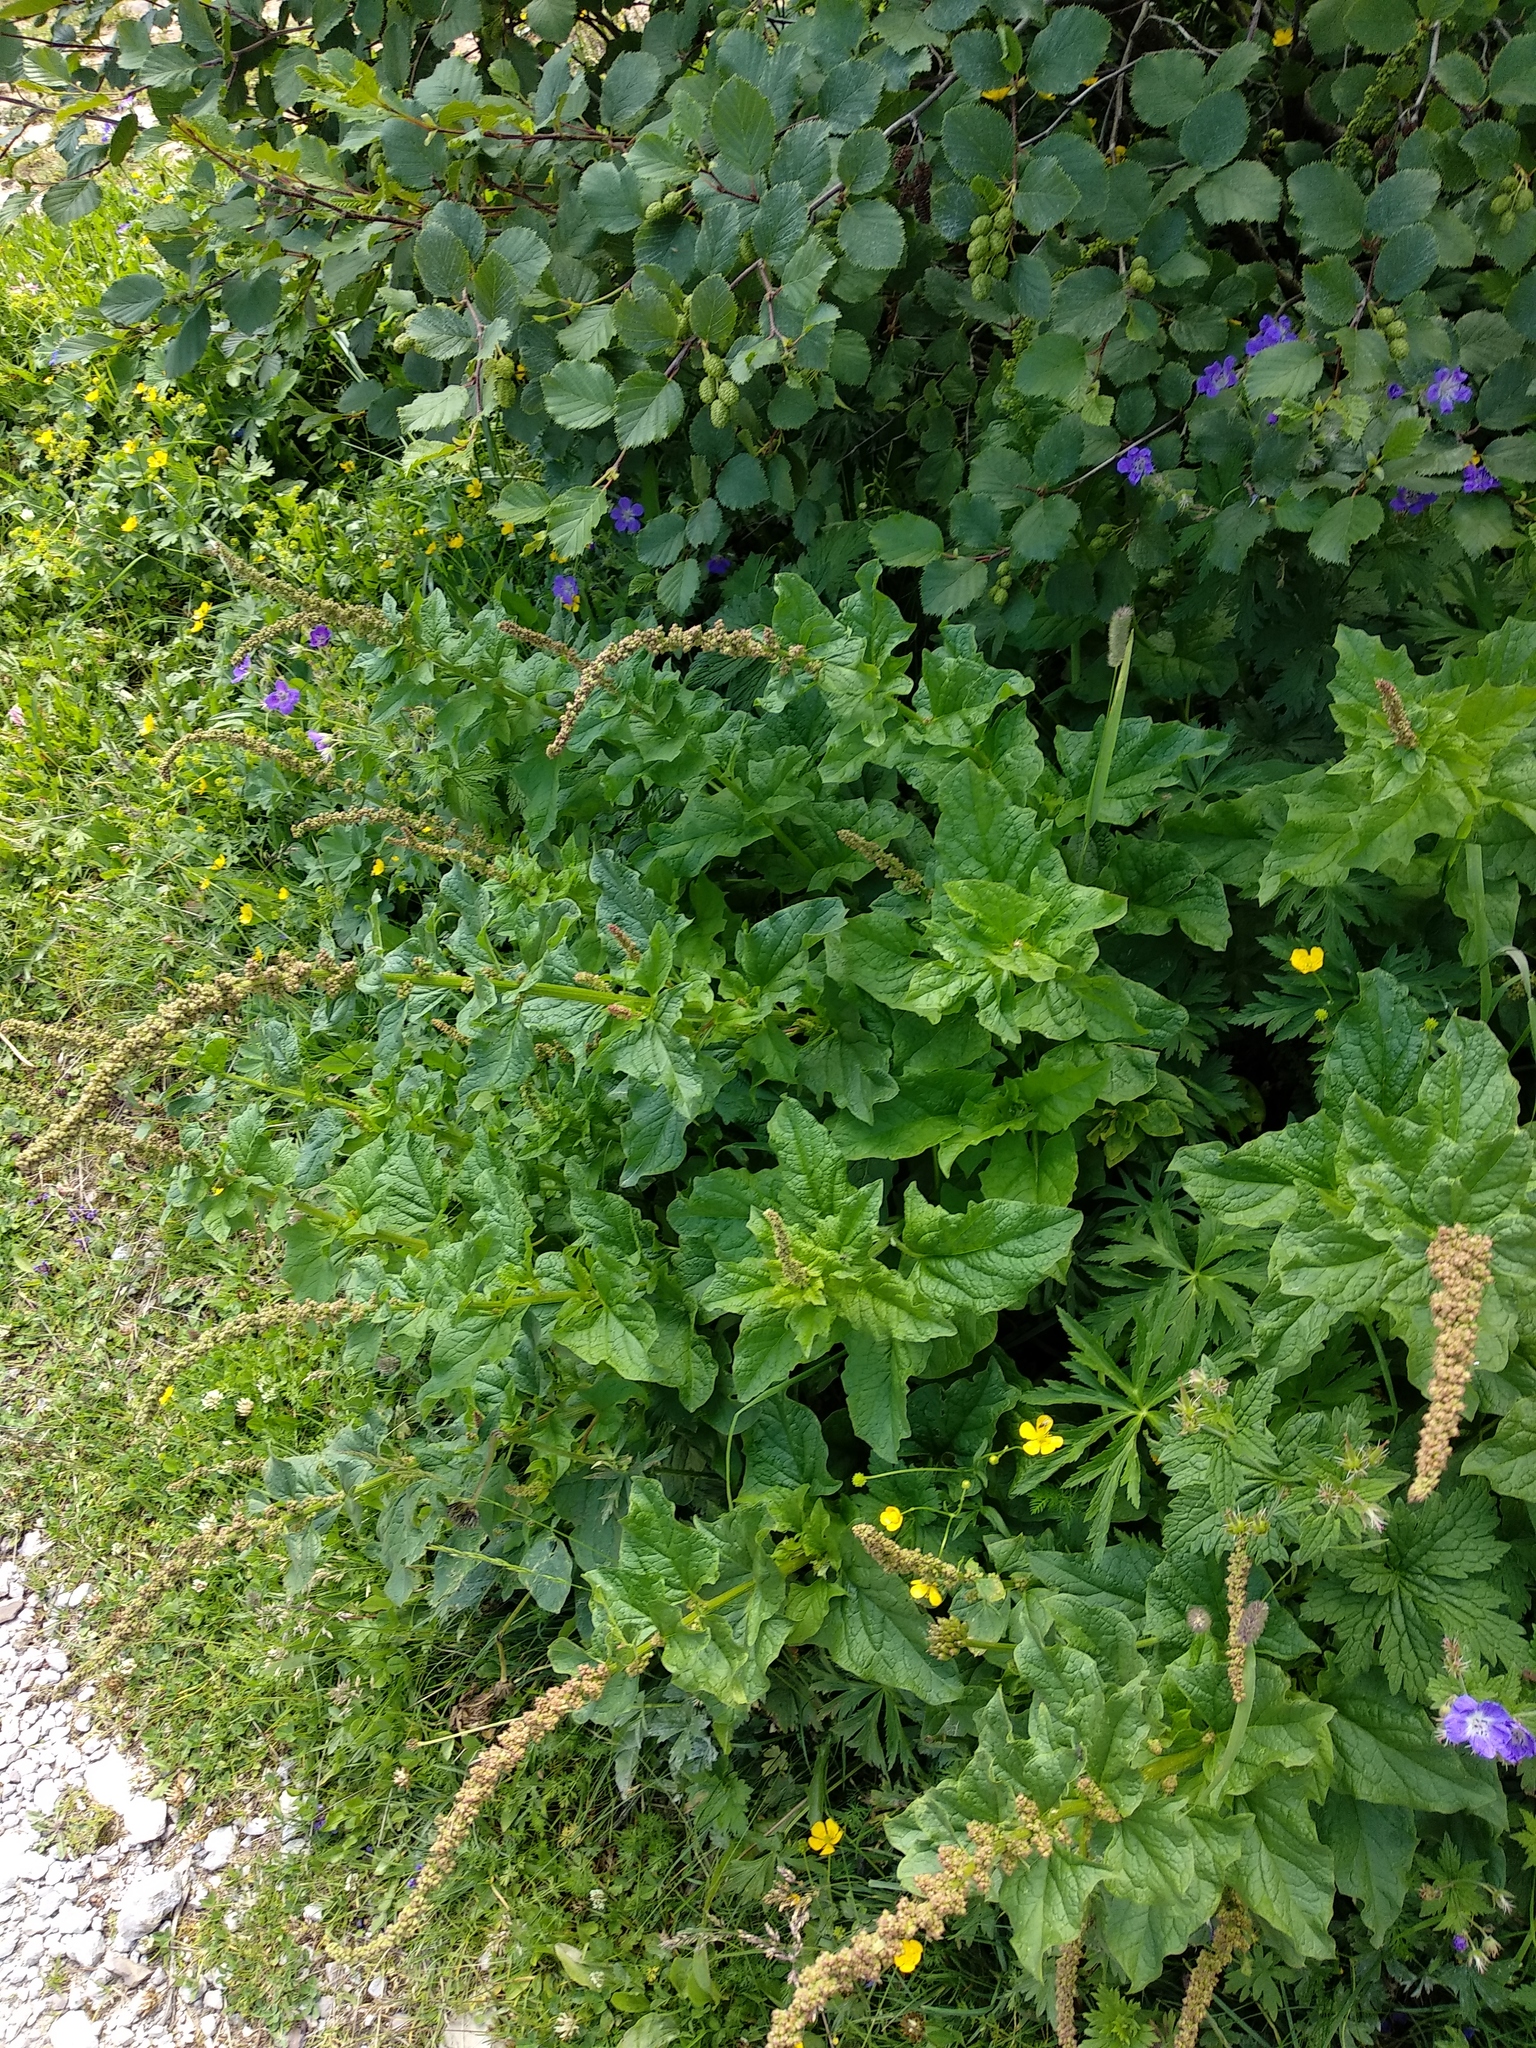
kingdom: Plantae
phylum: Tracheophyta
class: Magnoliopsida
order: Caryophyllales
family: Amaranthaceae
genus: Blitum
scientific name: Blitum bonus-henricus
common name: Good king henry
